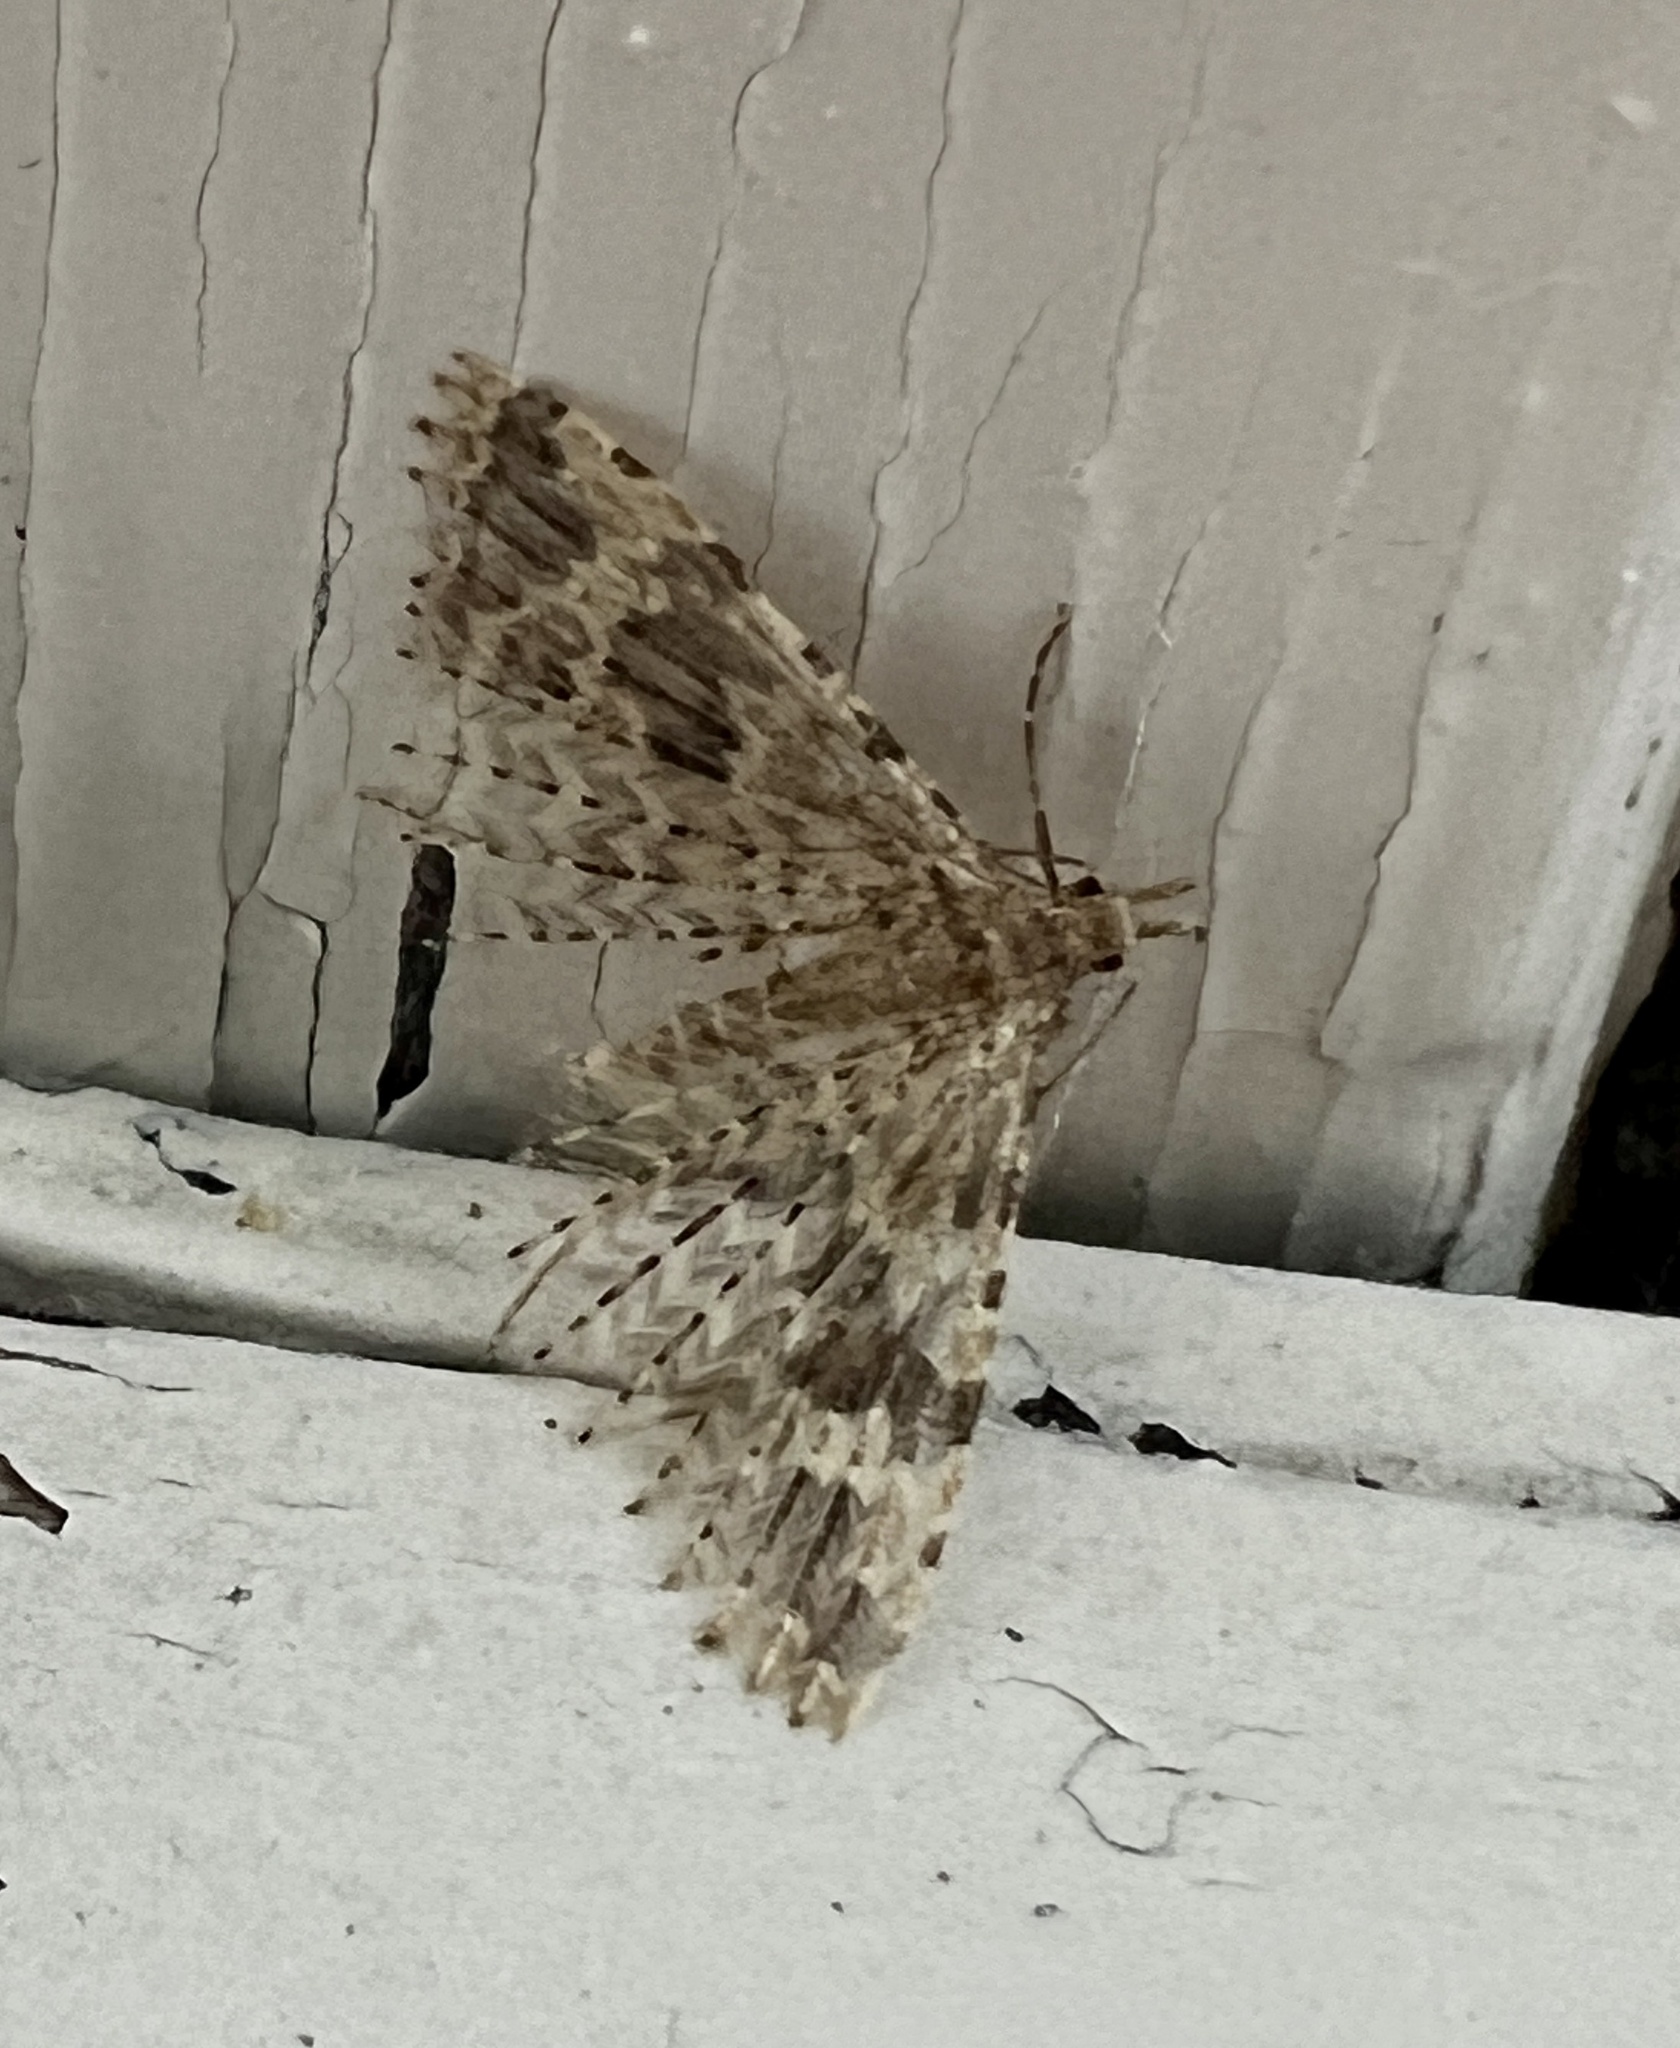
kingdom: Animalia
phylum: Arthropoda
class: Insecta
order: Lepidoptera
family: Alucitidae
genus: Alucita
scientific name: Alucita hexadactyla
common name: Twenty-plume moth
